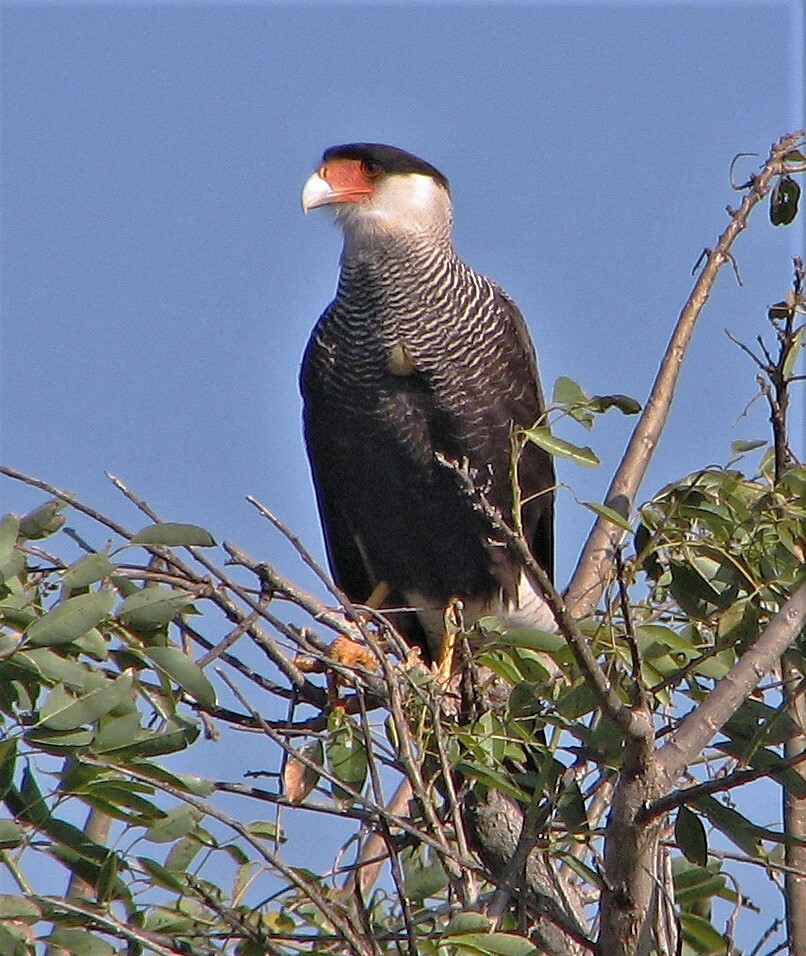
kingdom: Animalia
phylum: Chordata
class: Aves
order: Falconiformes
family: Falconidae
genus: Caracara
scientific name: Caracara plancus
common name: Southern caracara
